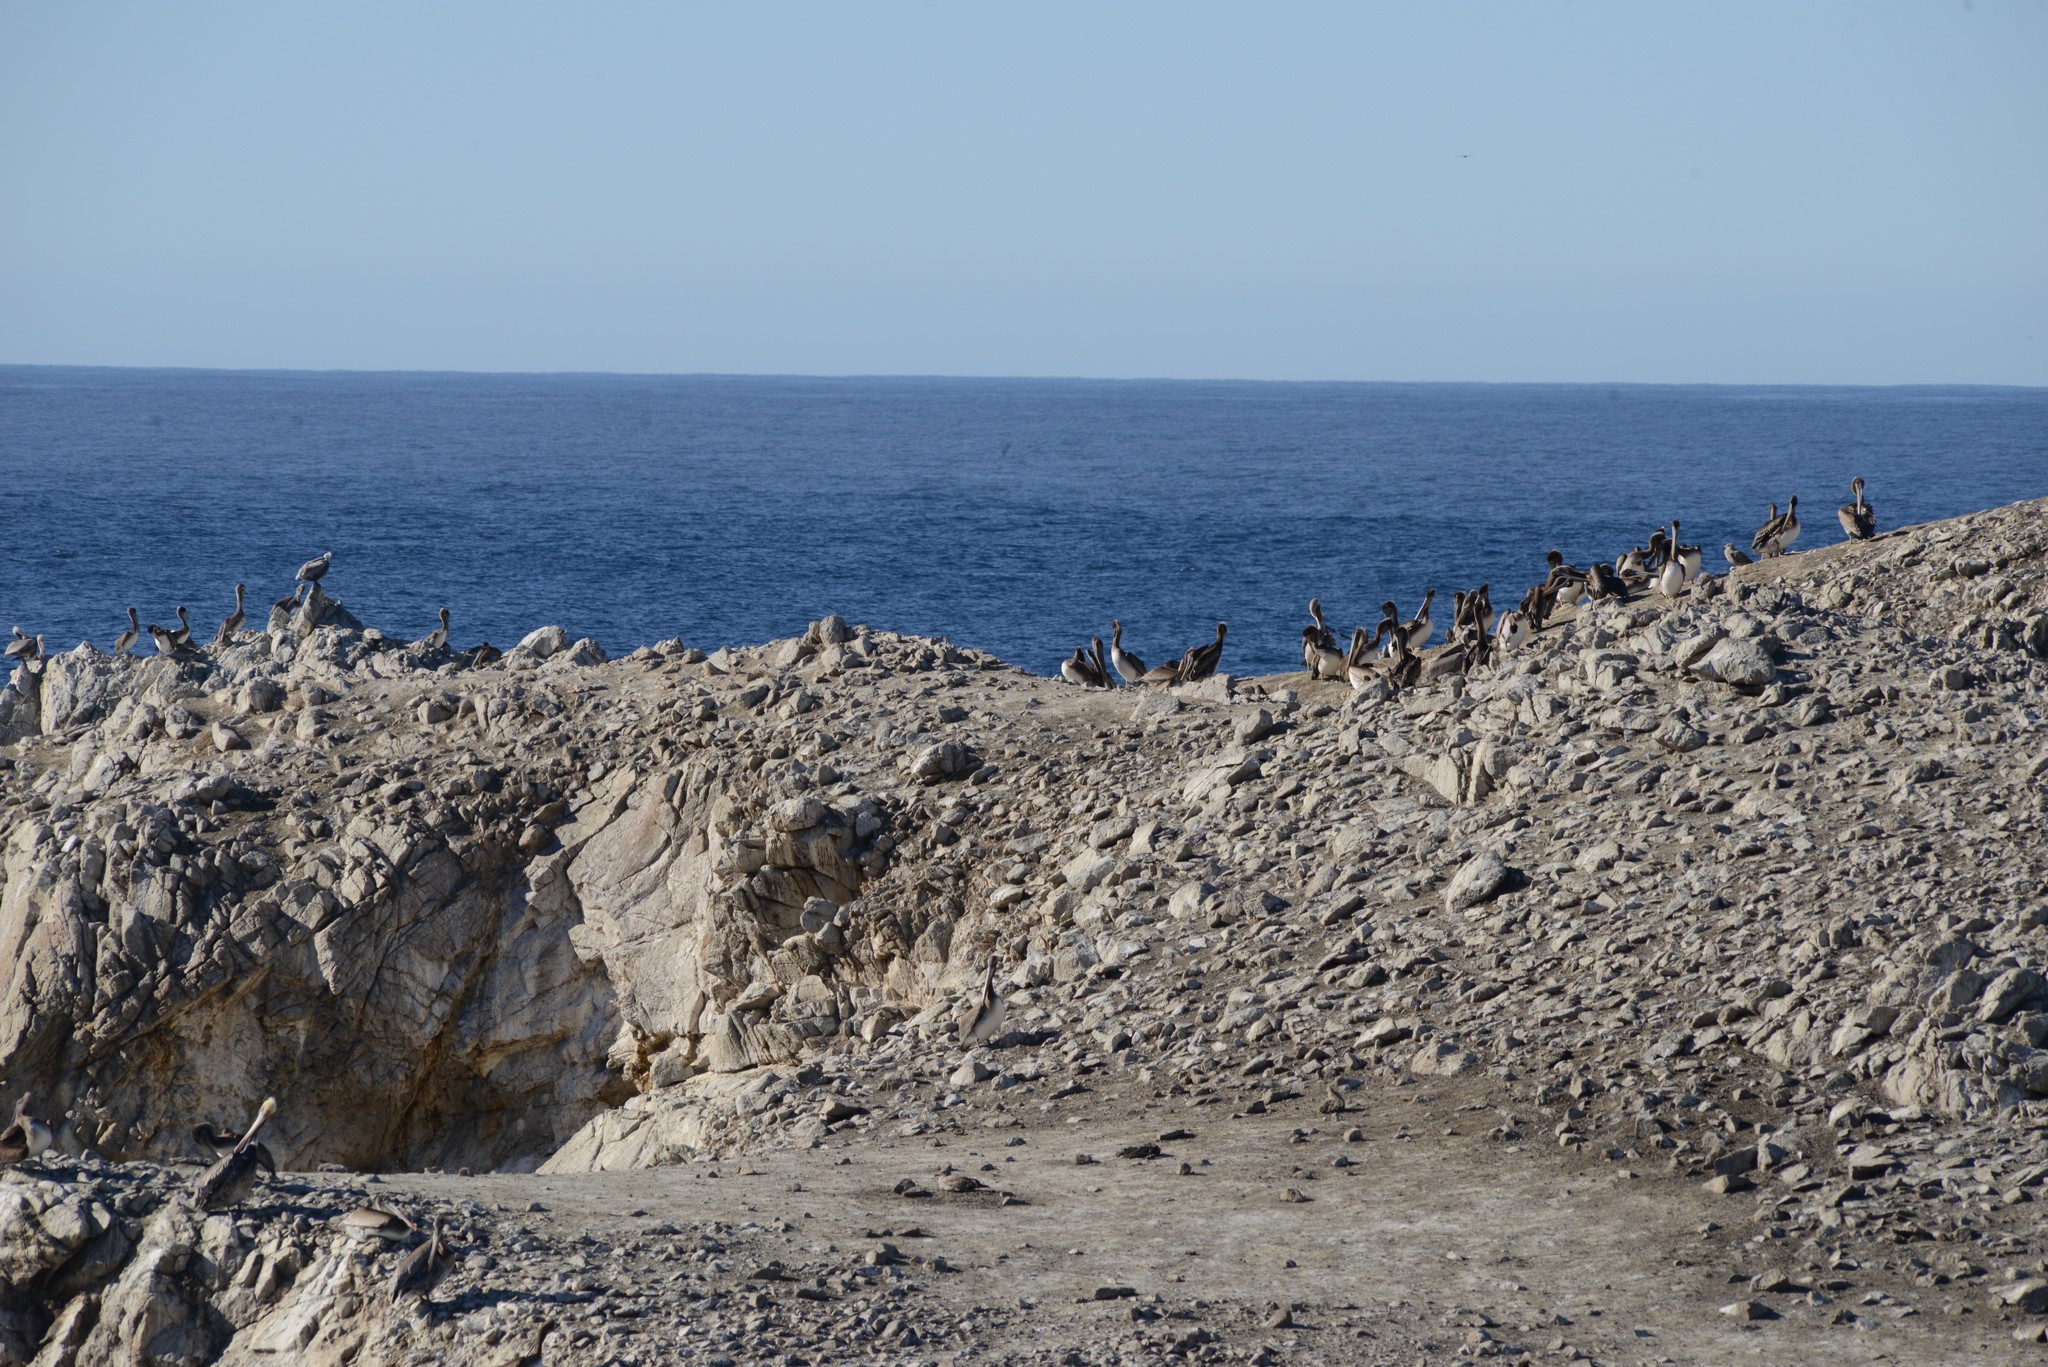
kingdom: Animalia
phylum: Chordata
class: Aves
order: Pelecaniformes
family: Pelecanidae
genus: Pelecanus
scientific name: Pelecanus occidentalis
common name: Brown pelican
